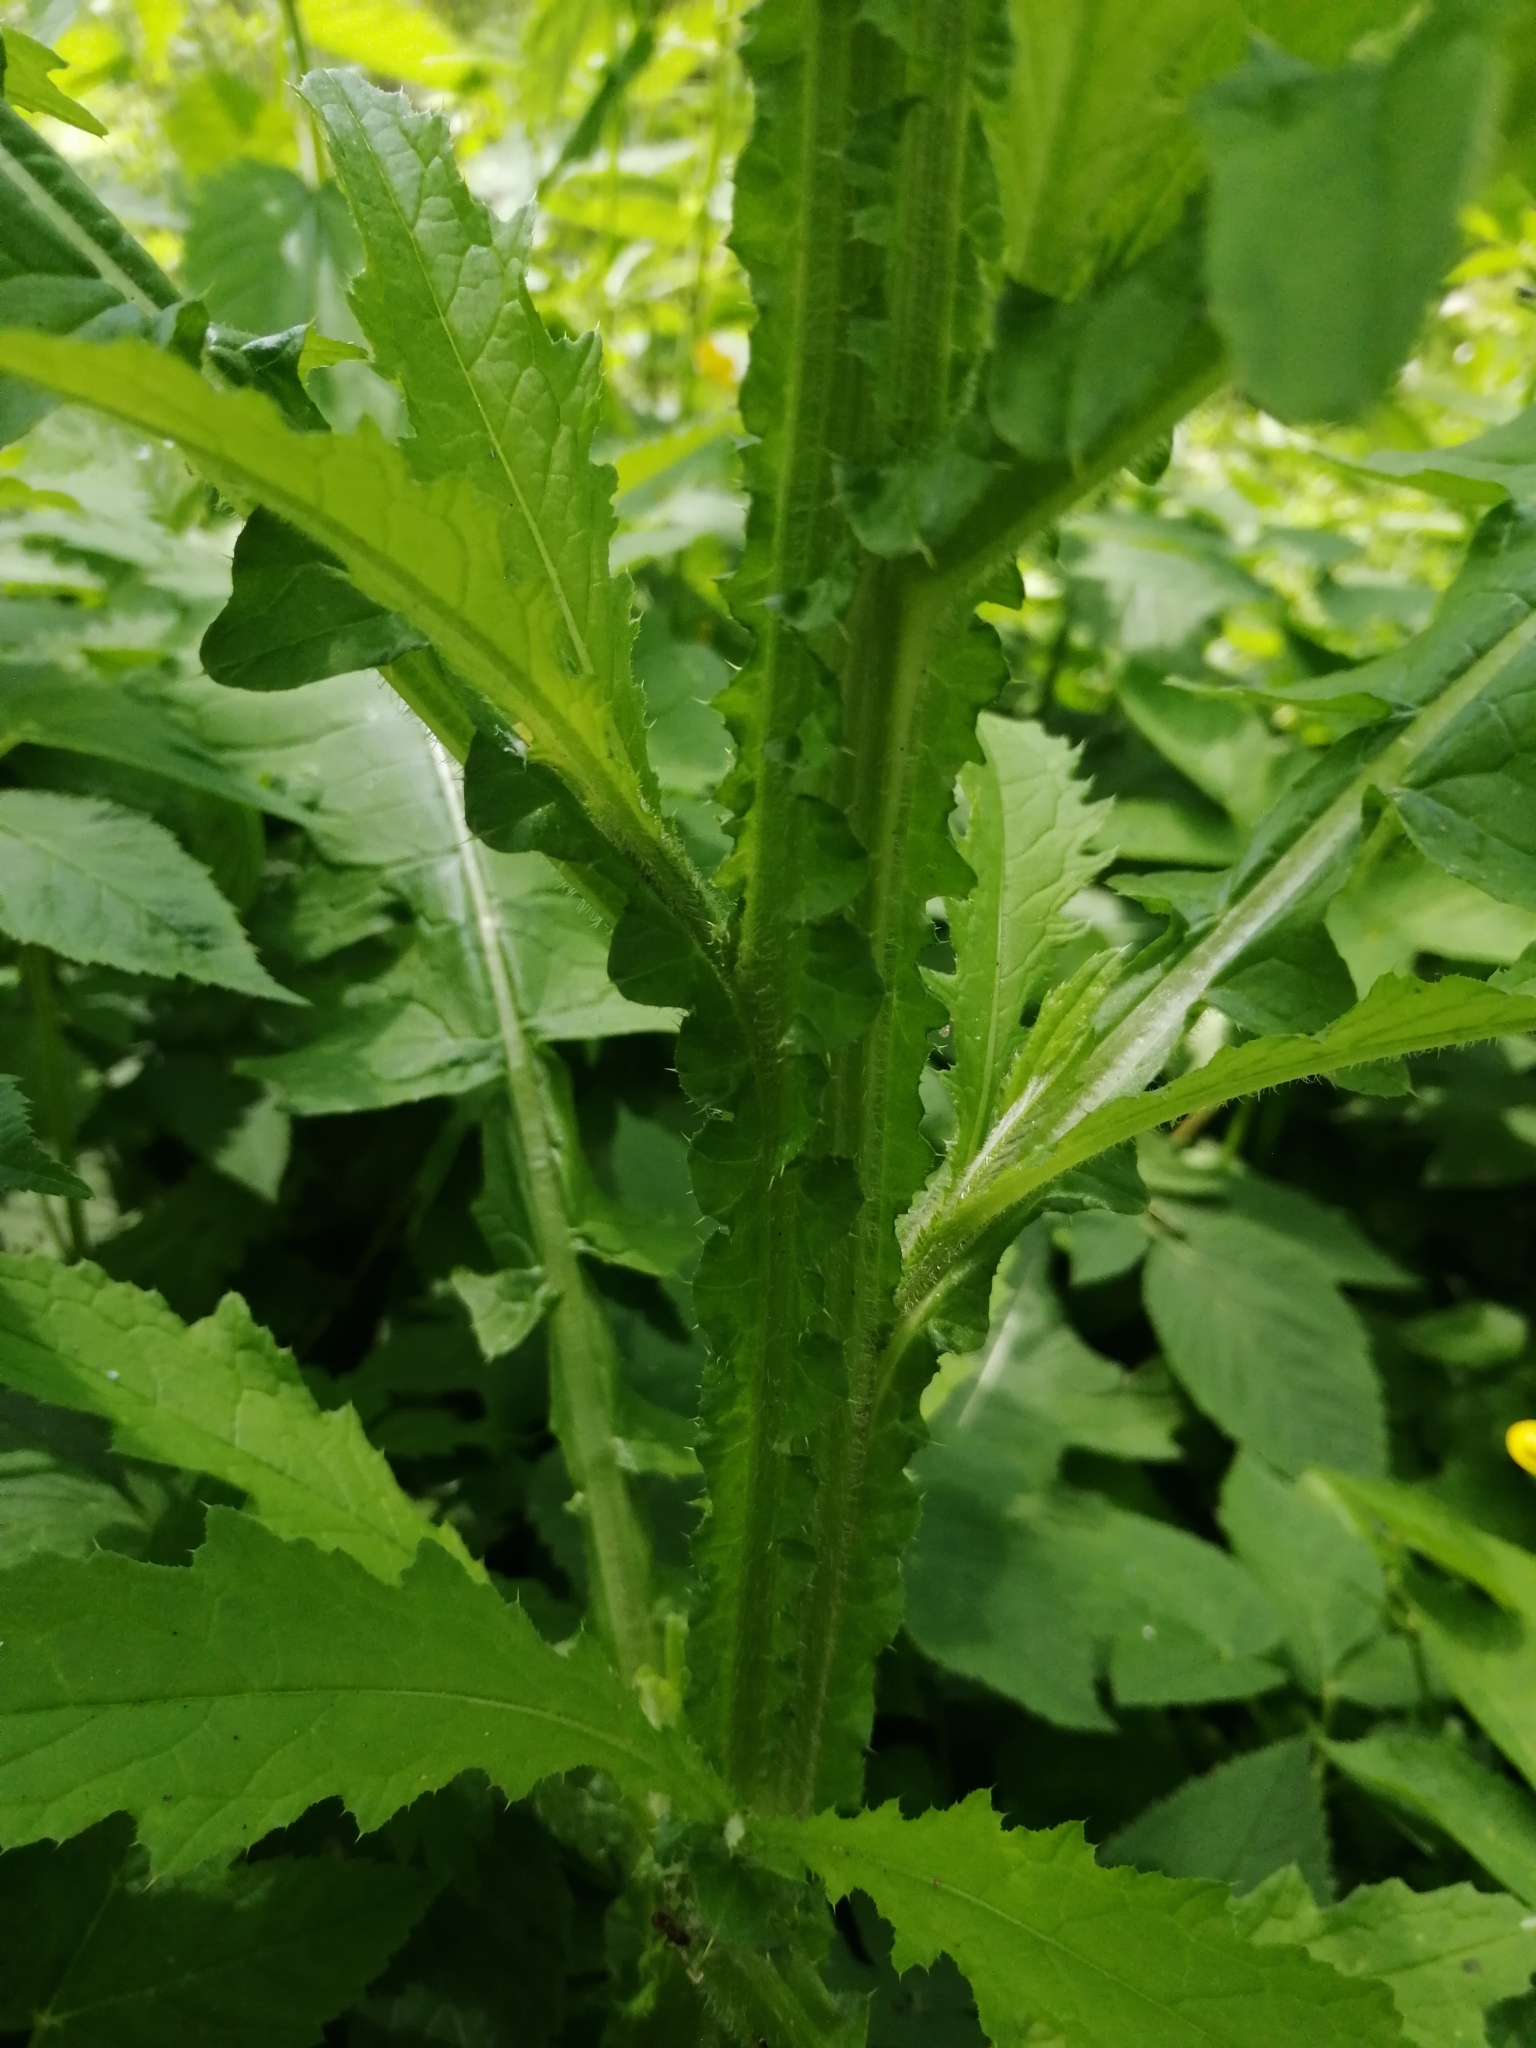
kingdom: Plantae
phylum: Tracheophyta
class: Magnoliopsida
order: Asterales
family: Asteraceae
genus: Carduus
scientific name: Carduus crispus
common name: Welted thistle
